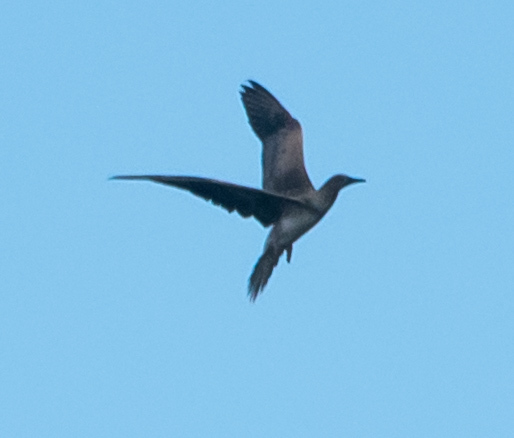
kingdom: Animalia
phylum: Chordata
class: Aves
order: Suliformes
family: Sulidae
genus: Sula
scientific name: Sula sula
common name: Red-footed booby
